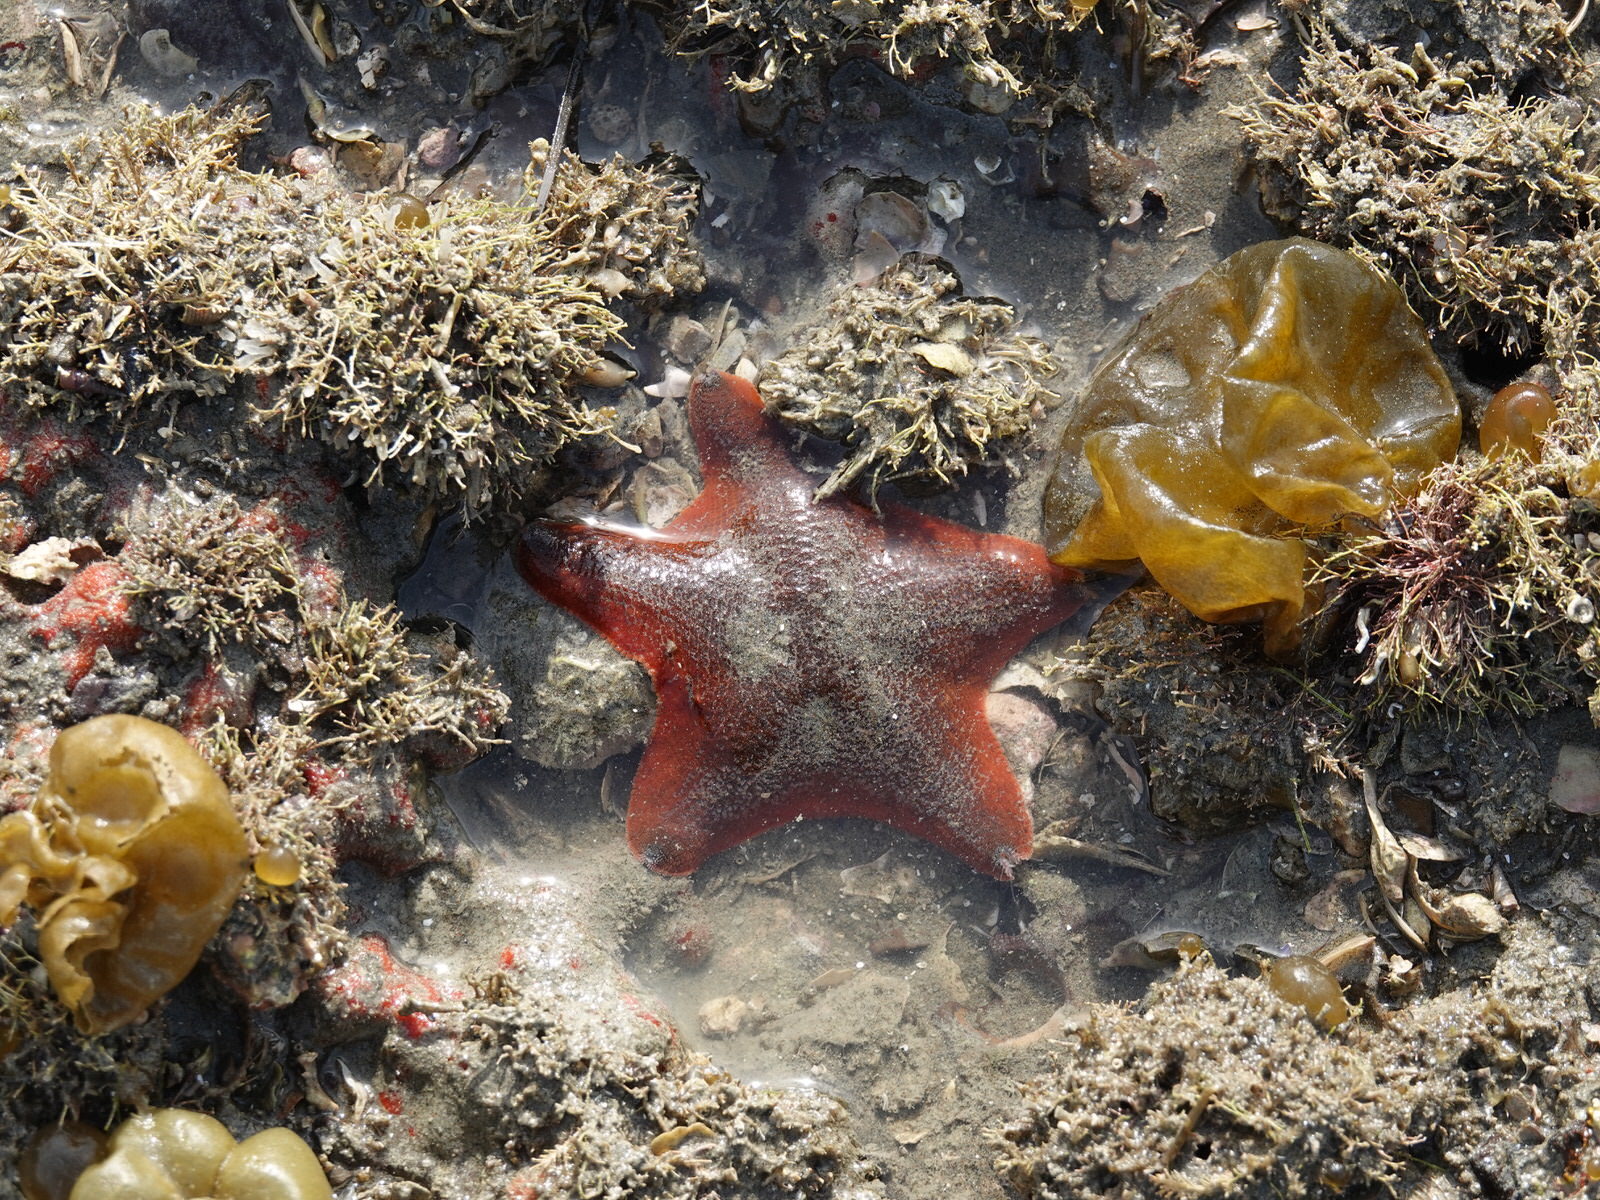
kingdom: Animalia
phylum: Echinodermata
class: Asteroidea
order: Valvatida
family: Asterinidae
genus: Patiriella
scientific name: Patiriella regularis
